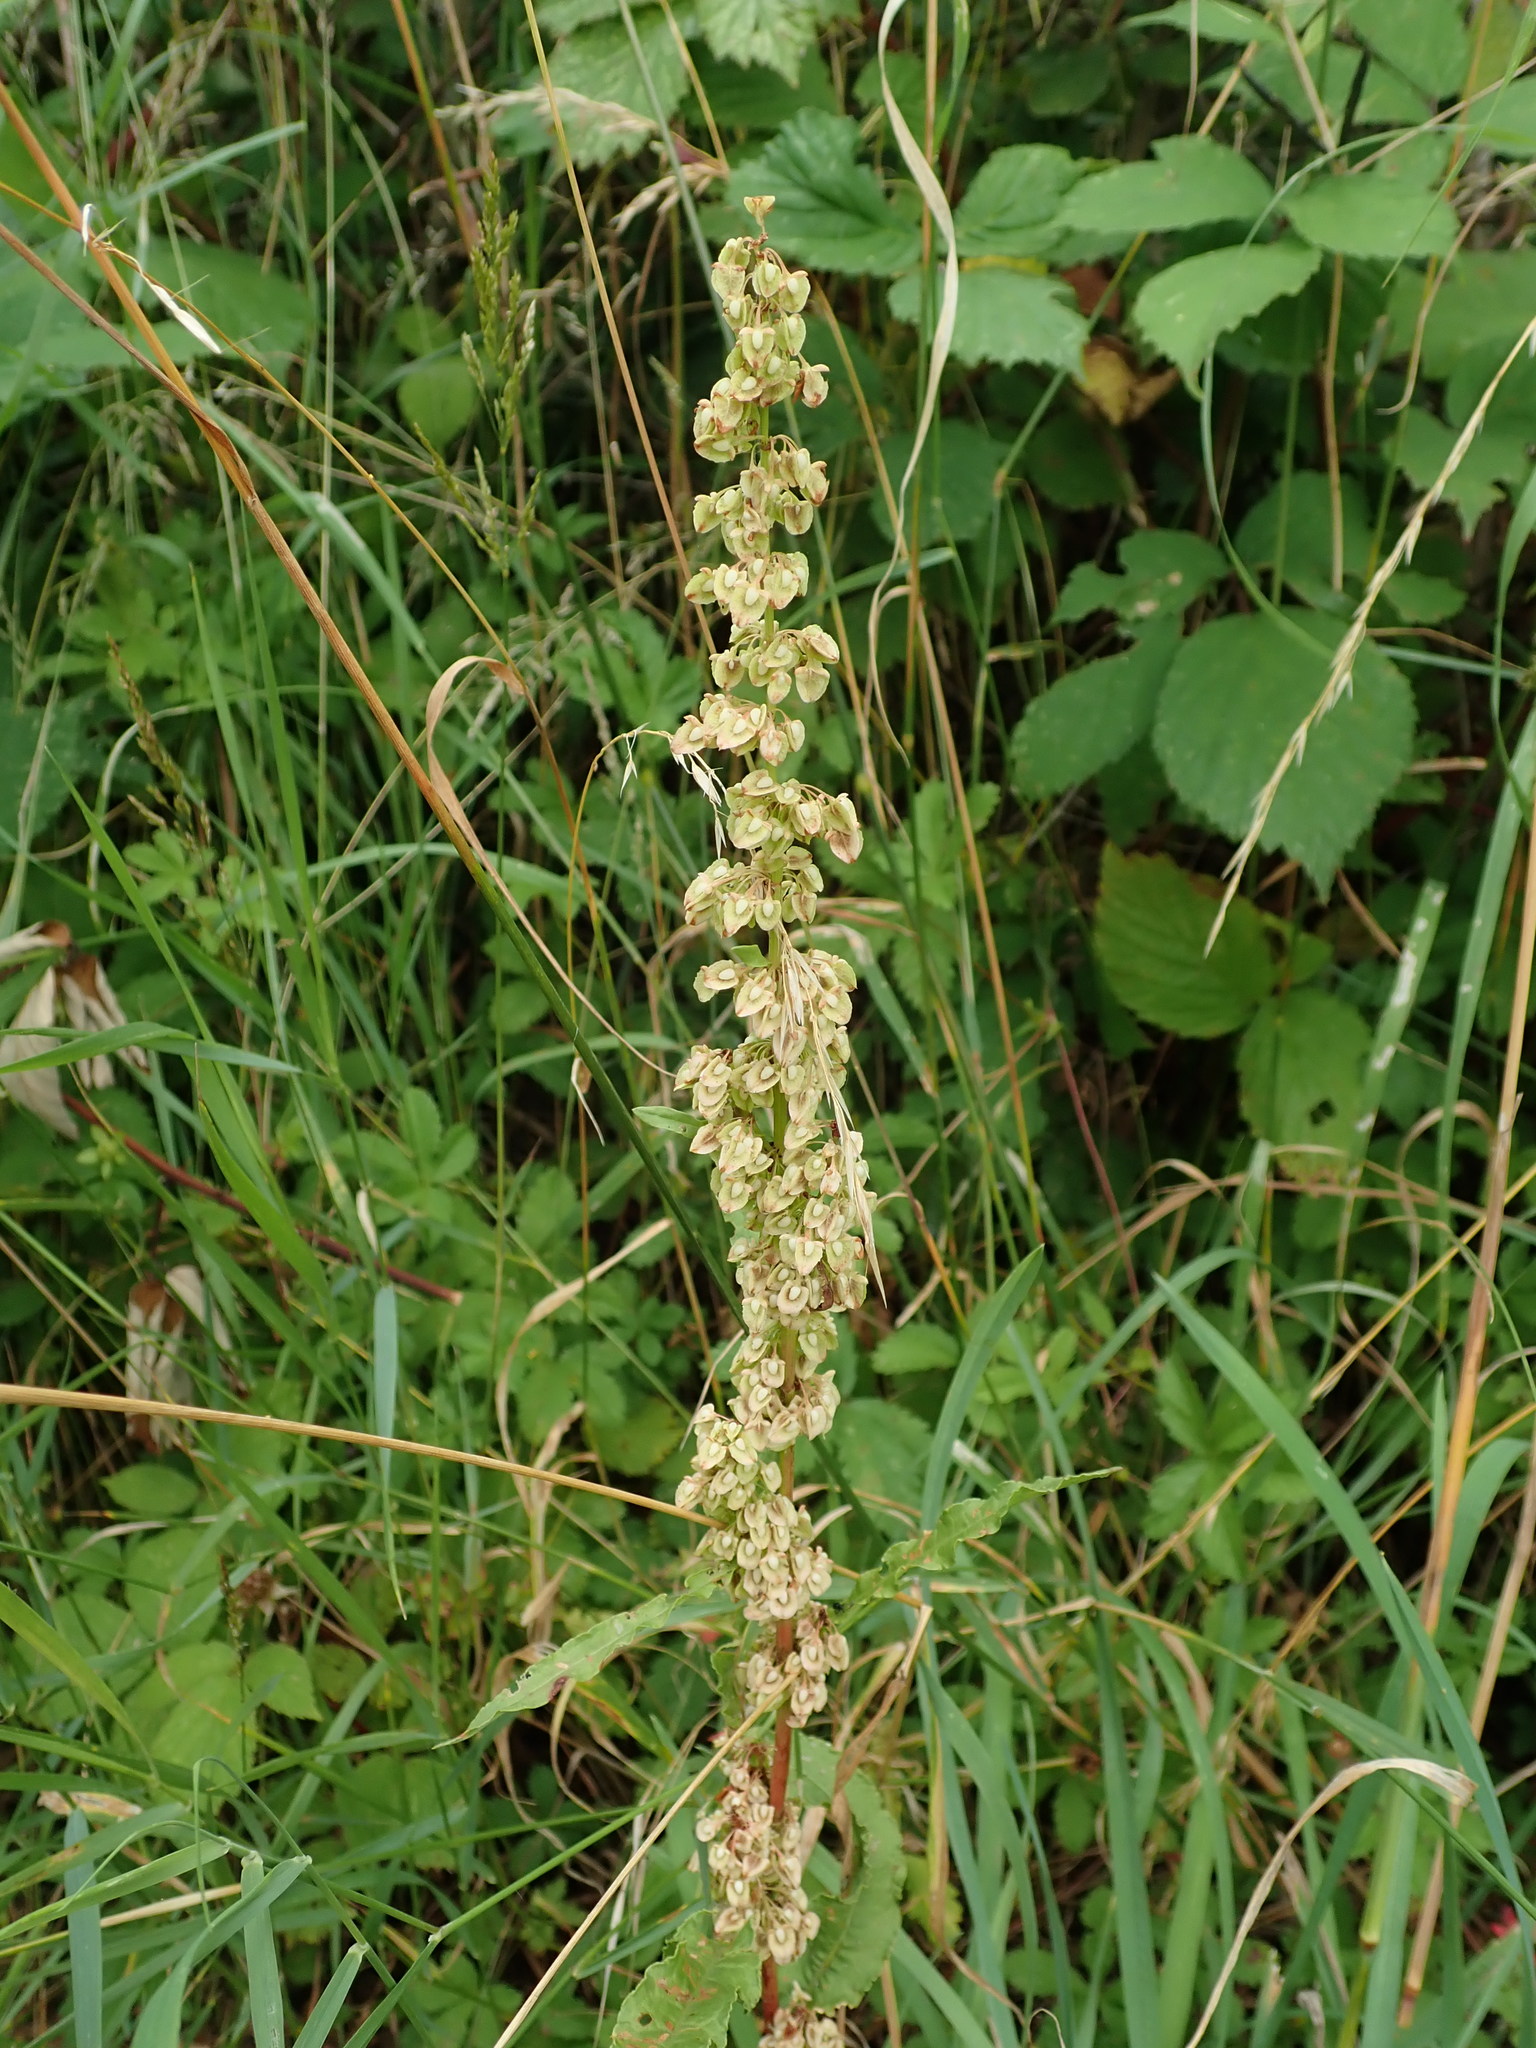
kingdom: Plantae
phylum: Tracheophyta
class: Magnoliopsida
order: Caryophyllales
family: Polygonaceae
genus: Rumex
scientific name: Rumex crispus
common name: Curled dock
